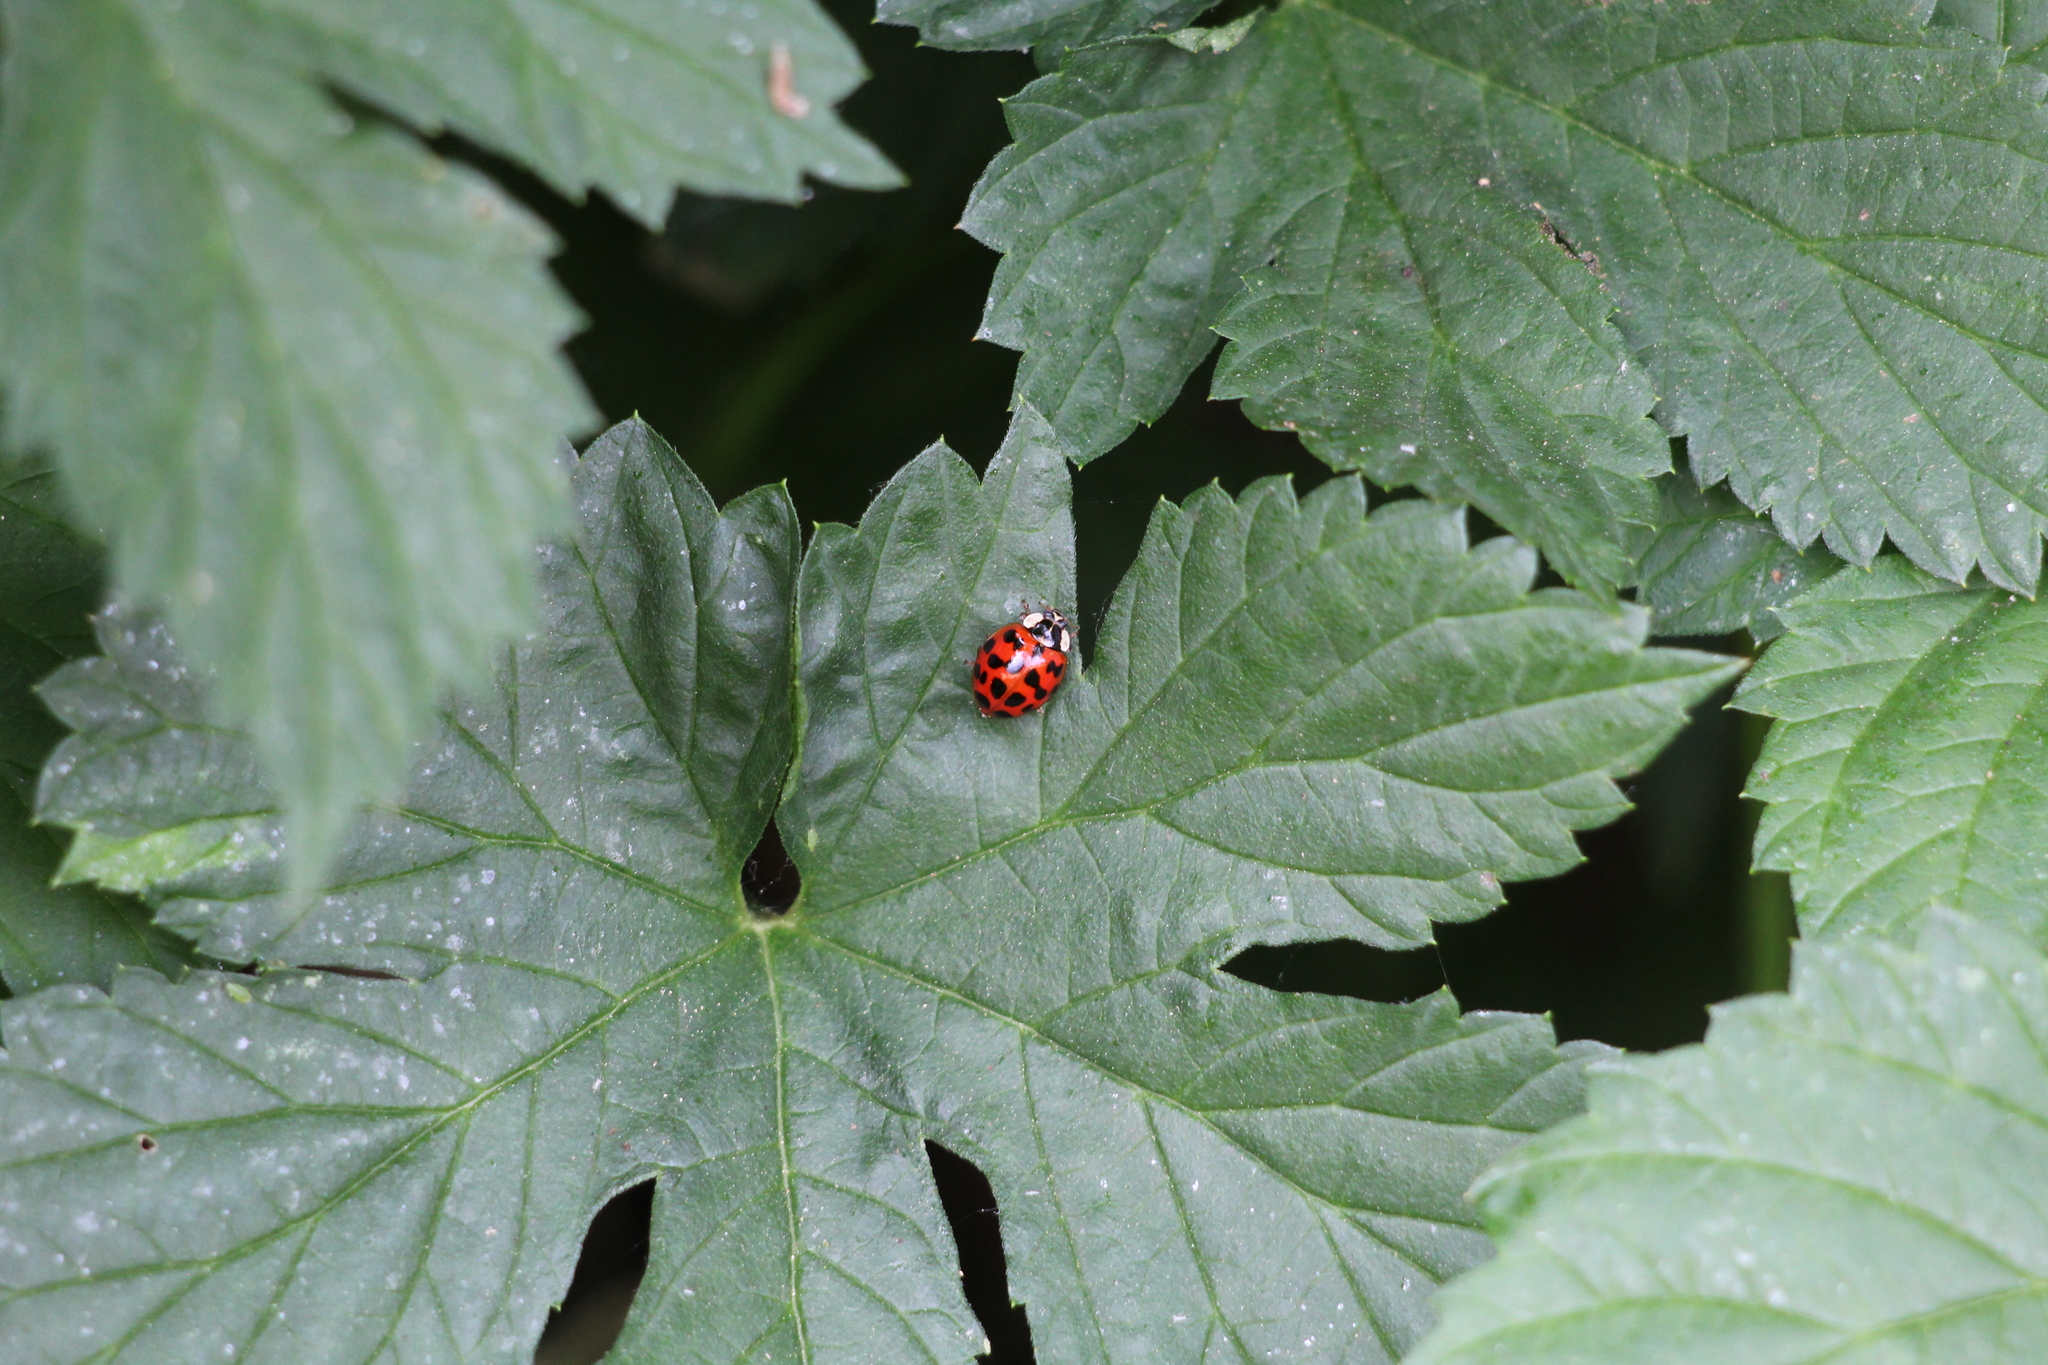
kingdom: Animalia
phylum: Arthropoda
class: Insecta
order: Coleoptera
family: Coccinellidae
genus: Harmonia
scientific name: Harmonia axyridis
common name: Harlequin ladybird
